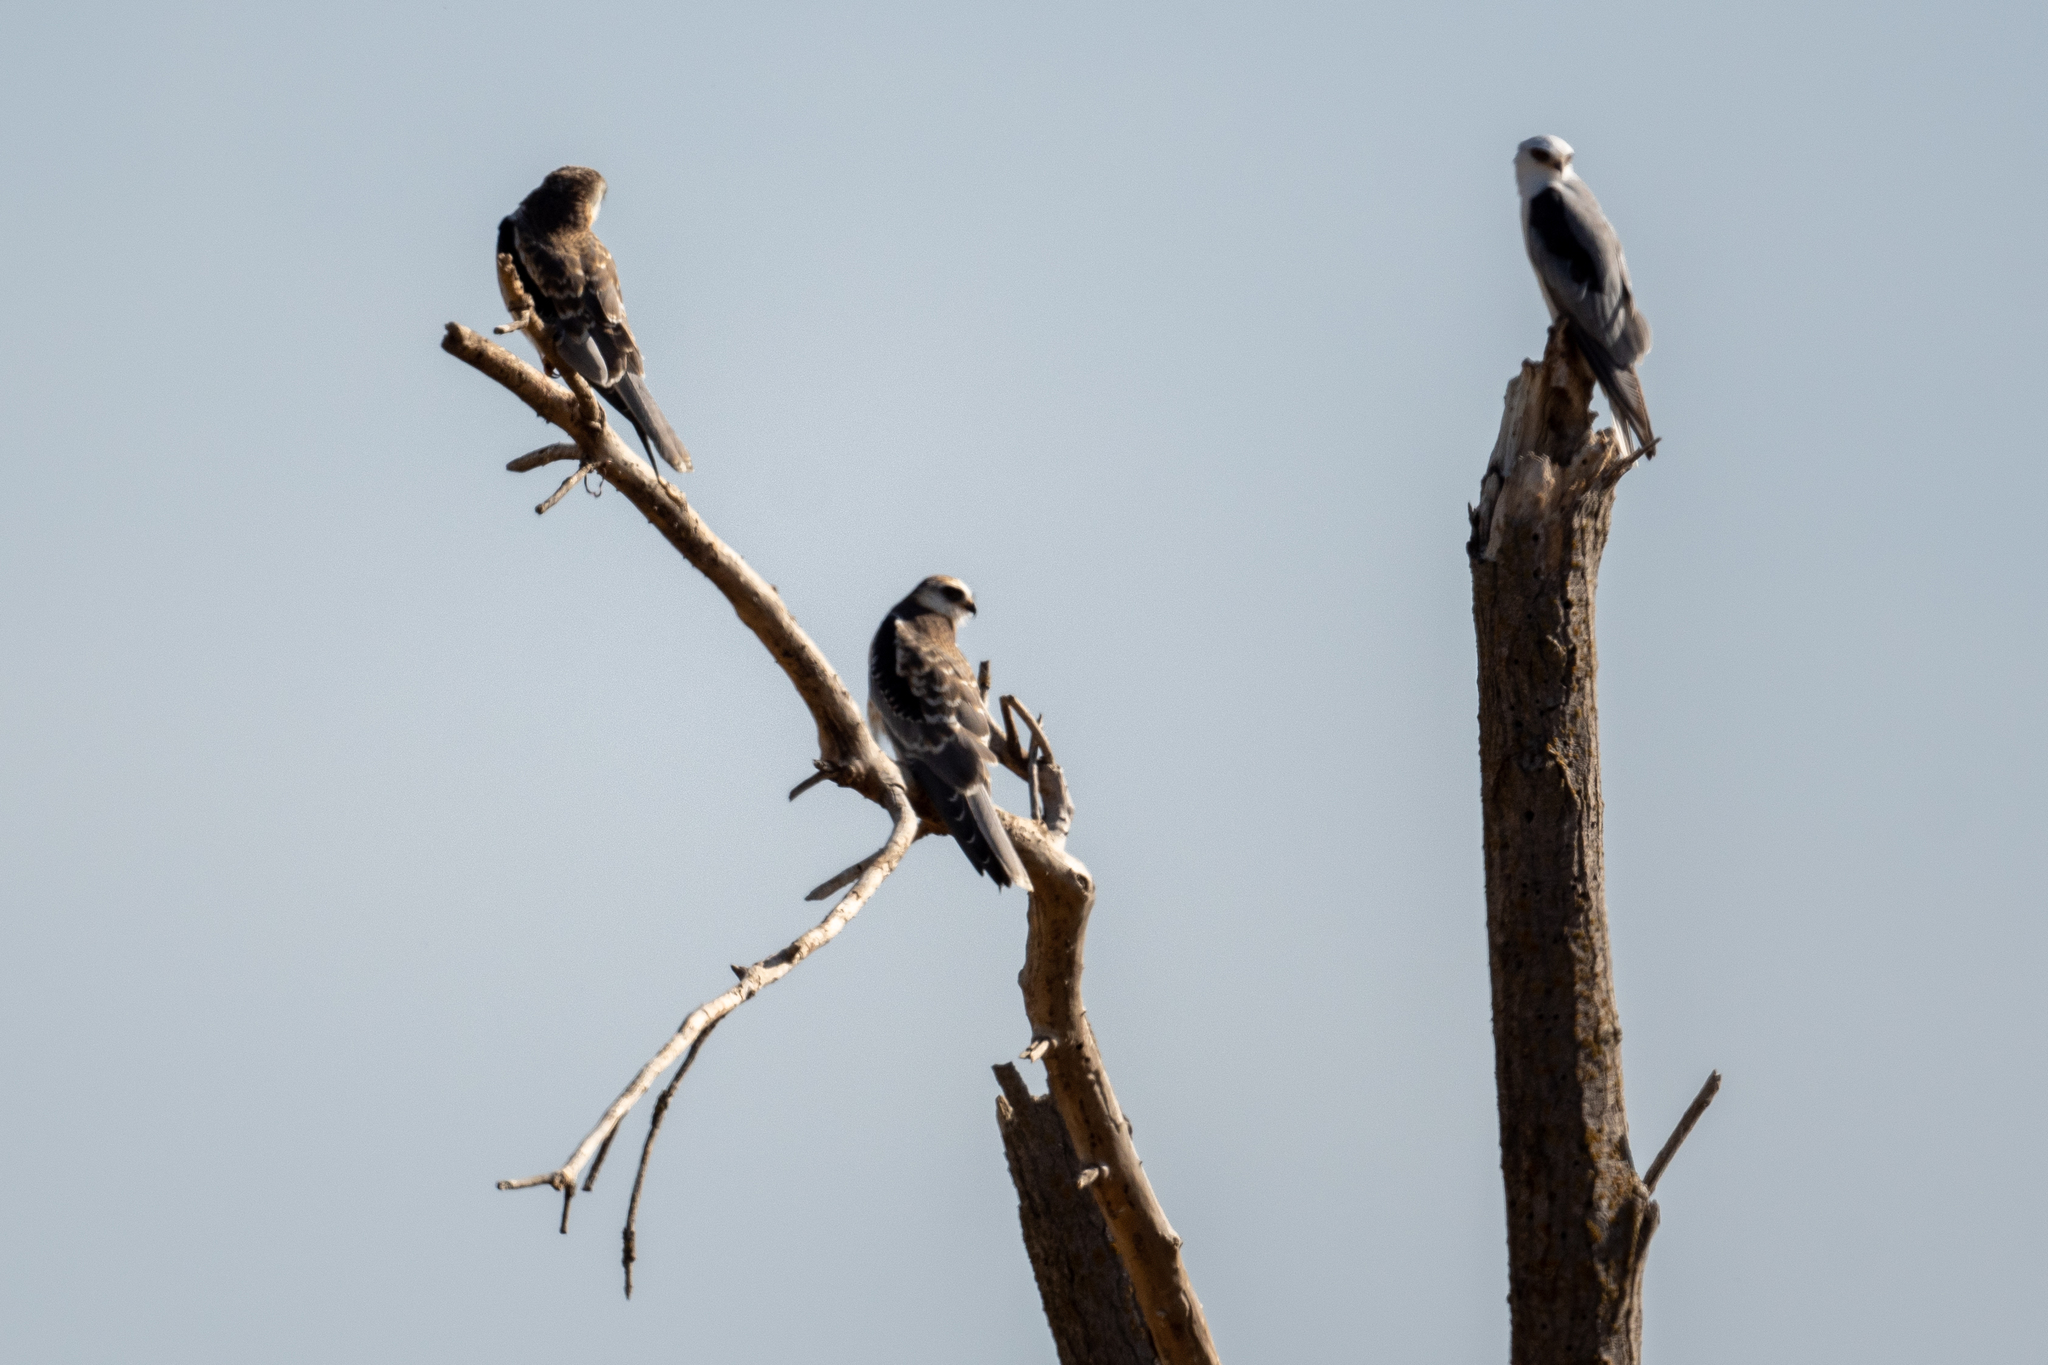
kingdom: Animalia
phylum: Chordata
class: Aves
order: Accipitriformes
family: Accipitridae
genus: Elanus
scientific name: Elanus leucurus
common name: White-tailed kite
